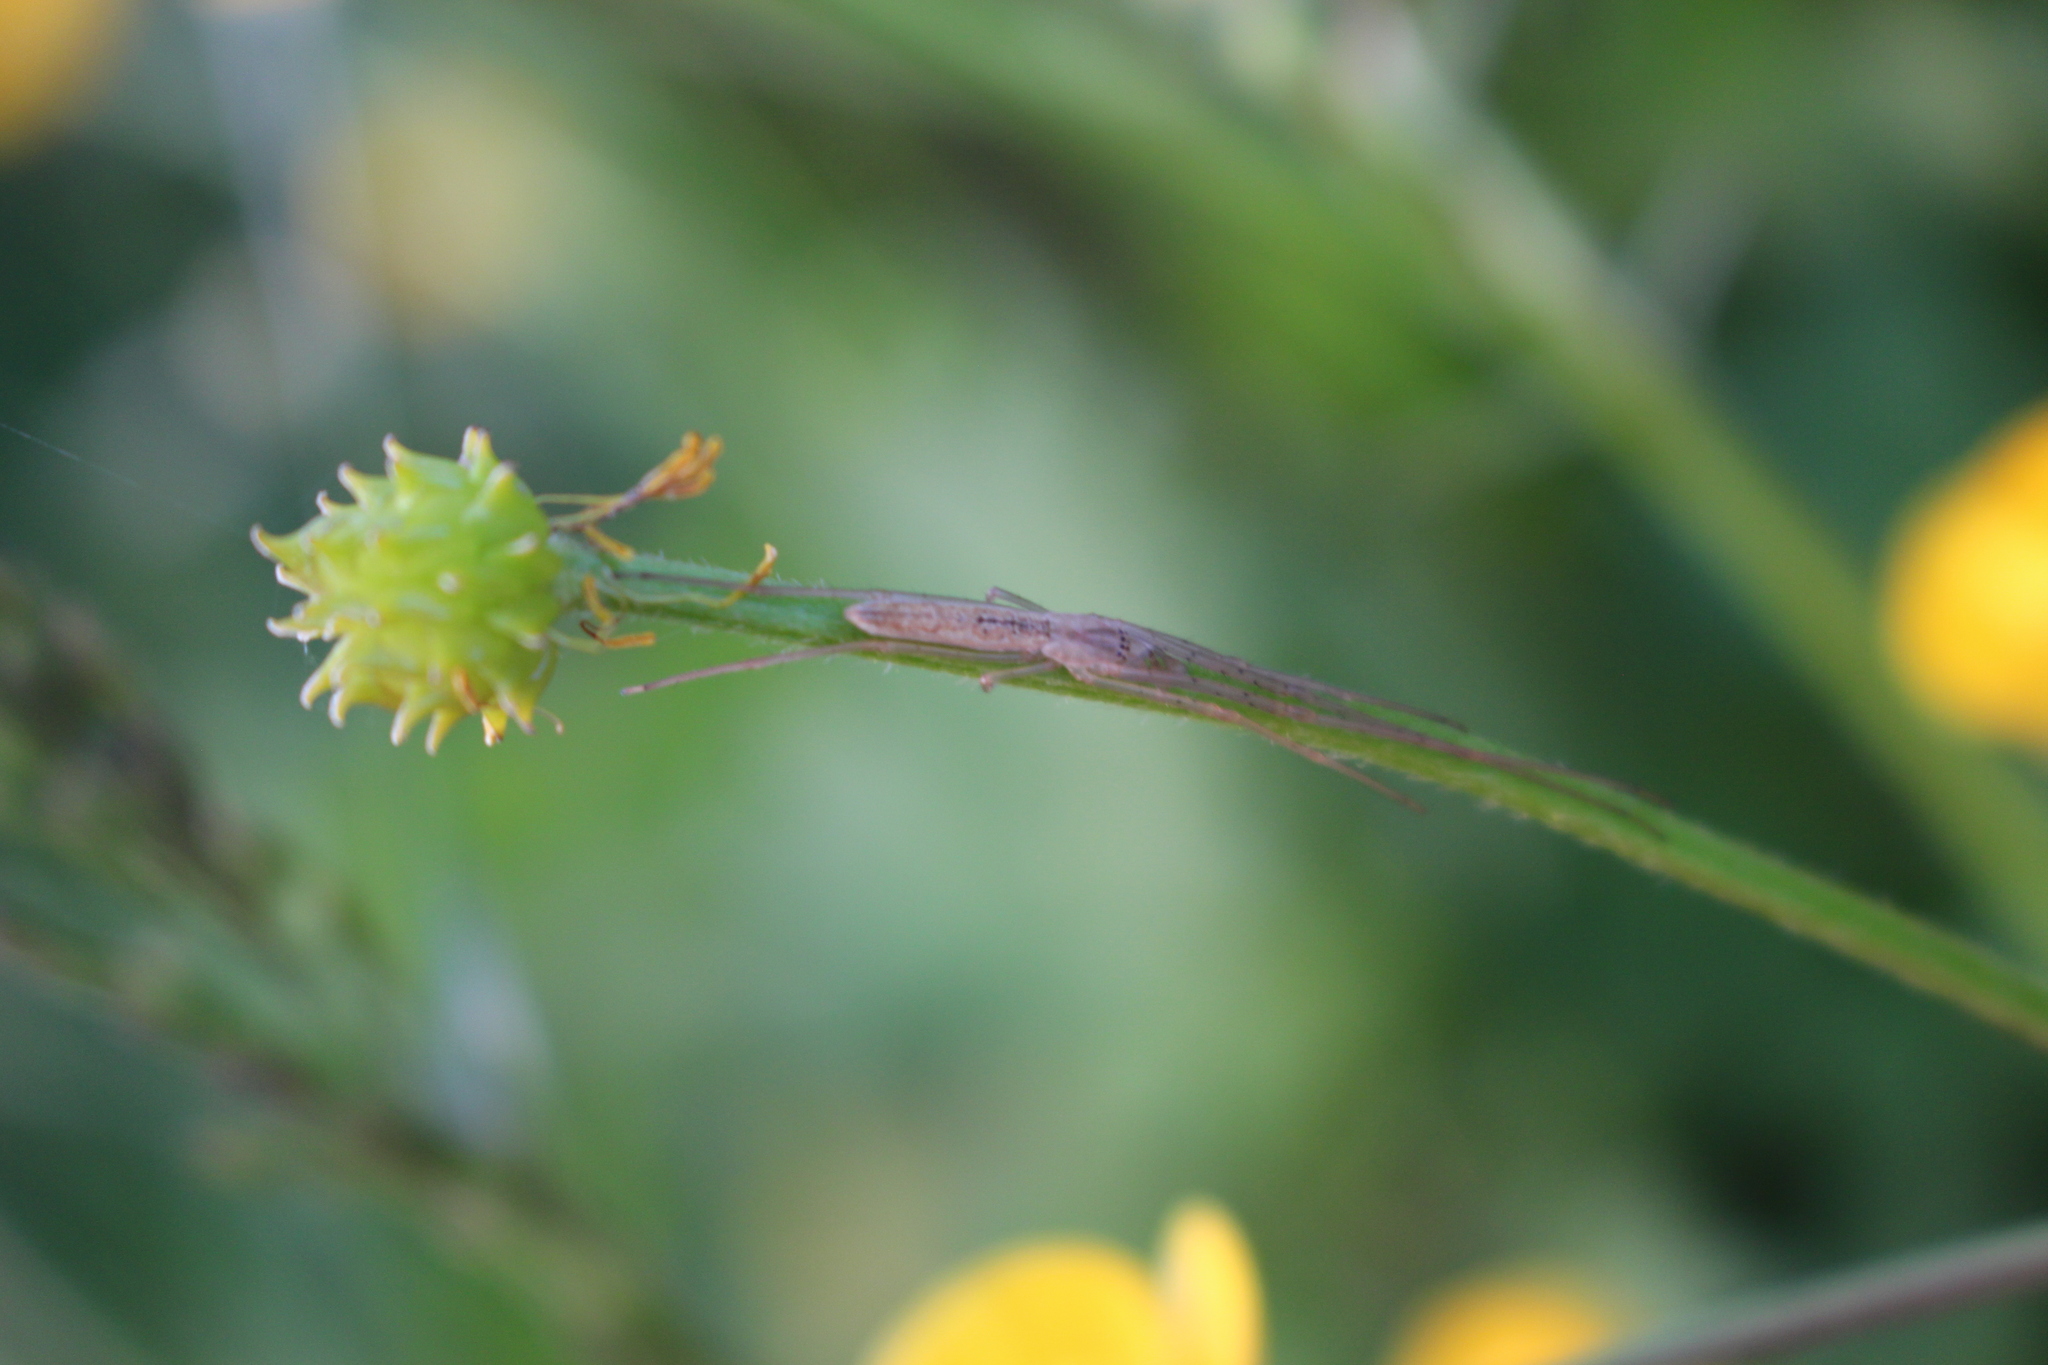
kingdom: Animalia
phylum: Arthropoda
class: Arachnida
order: Araneae
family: Desidae
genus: Ischalea
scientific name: Ischalea spinipes
